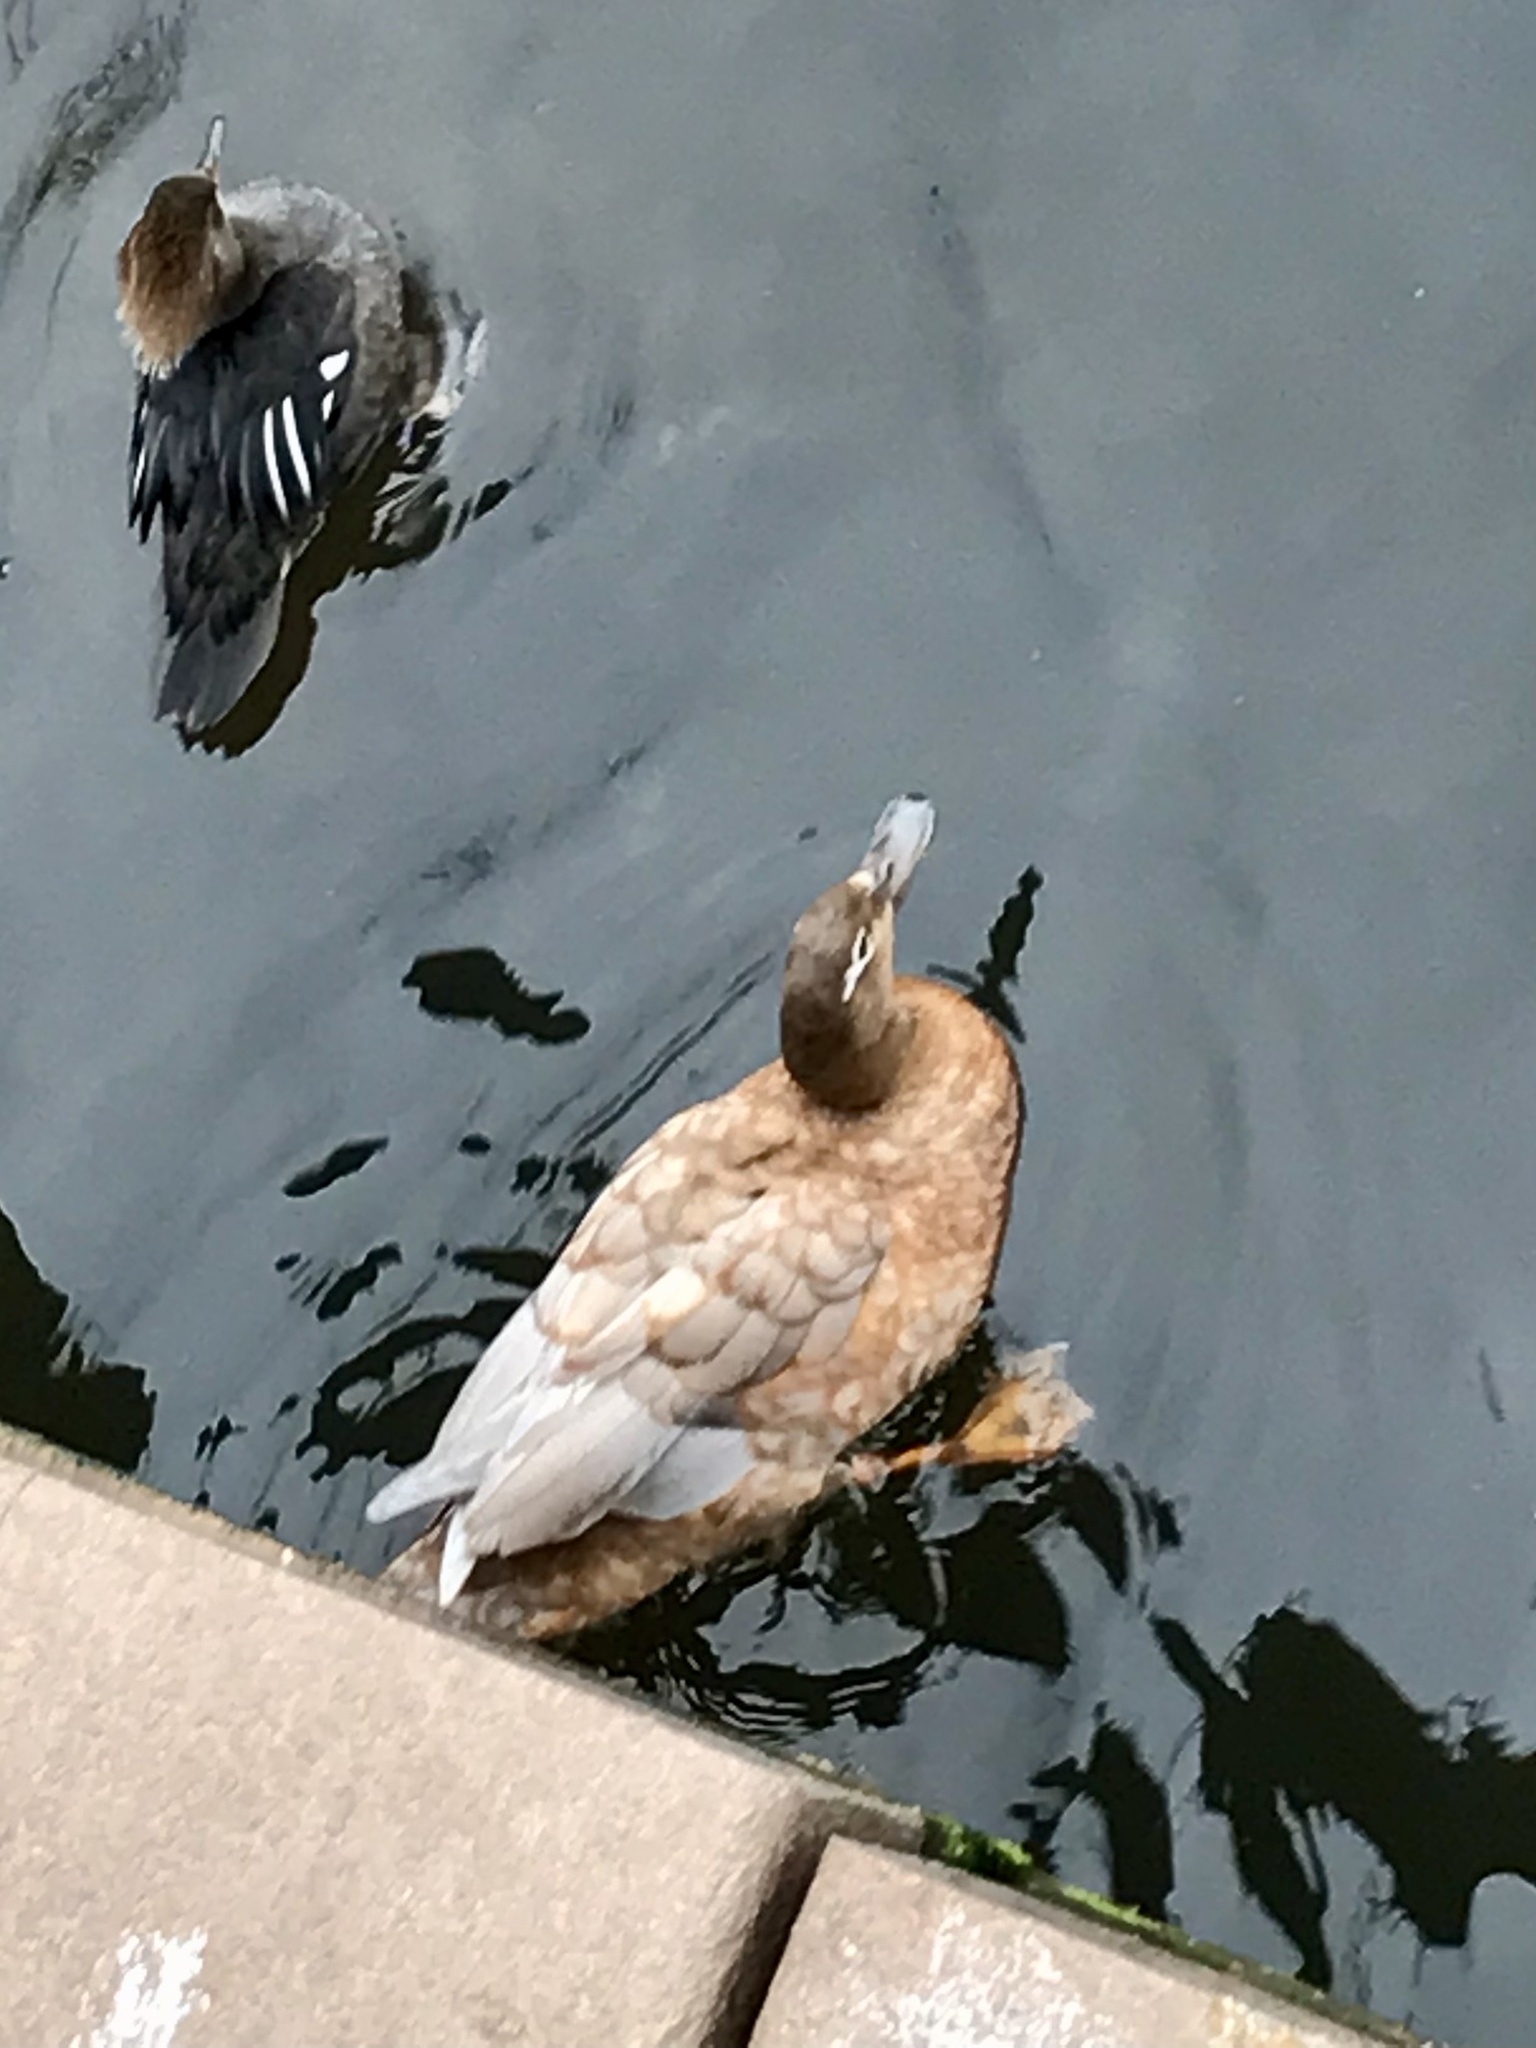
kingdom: Animalia
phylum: Chordata
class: Aves
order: Anseriformes
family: Anatidae
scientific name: Anatidae
